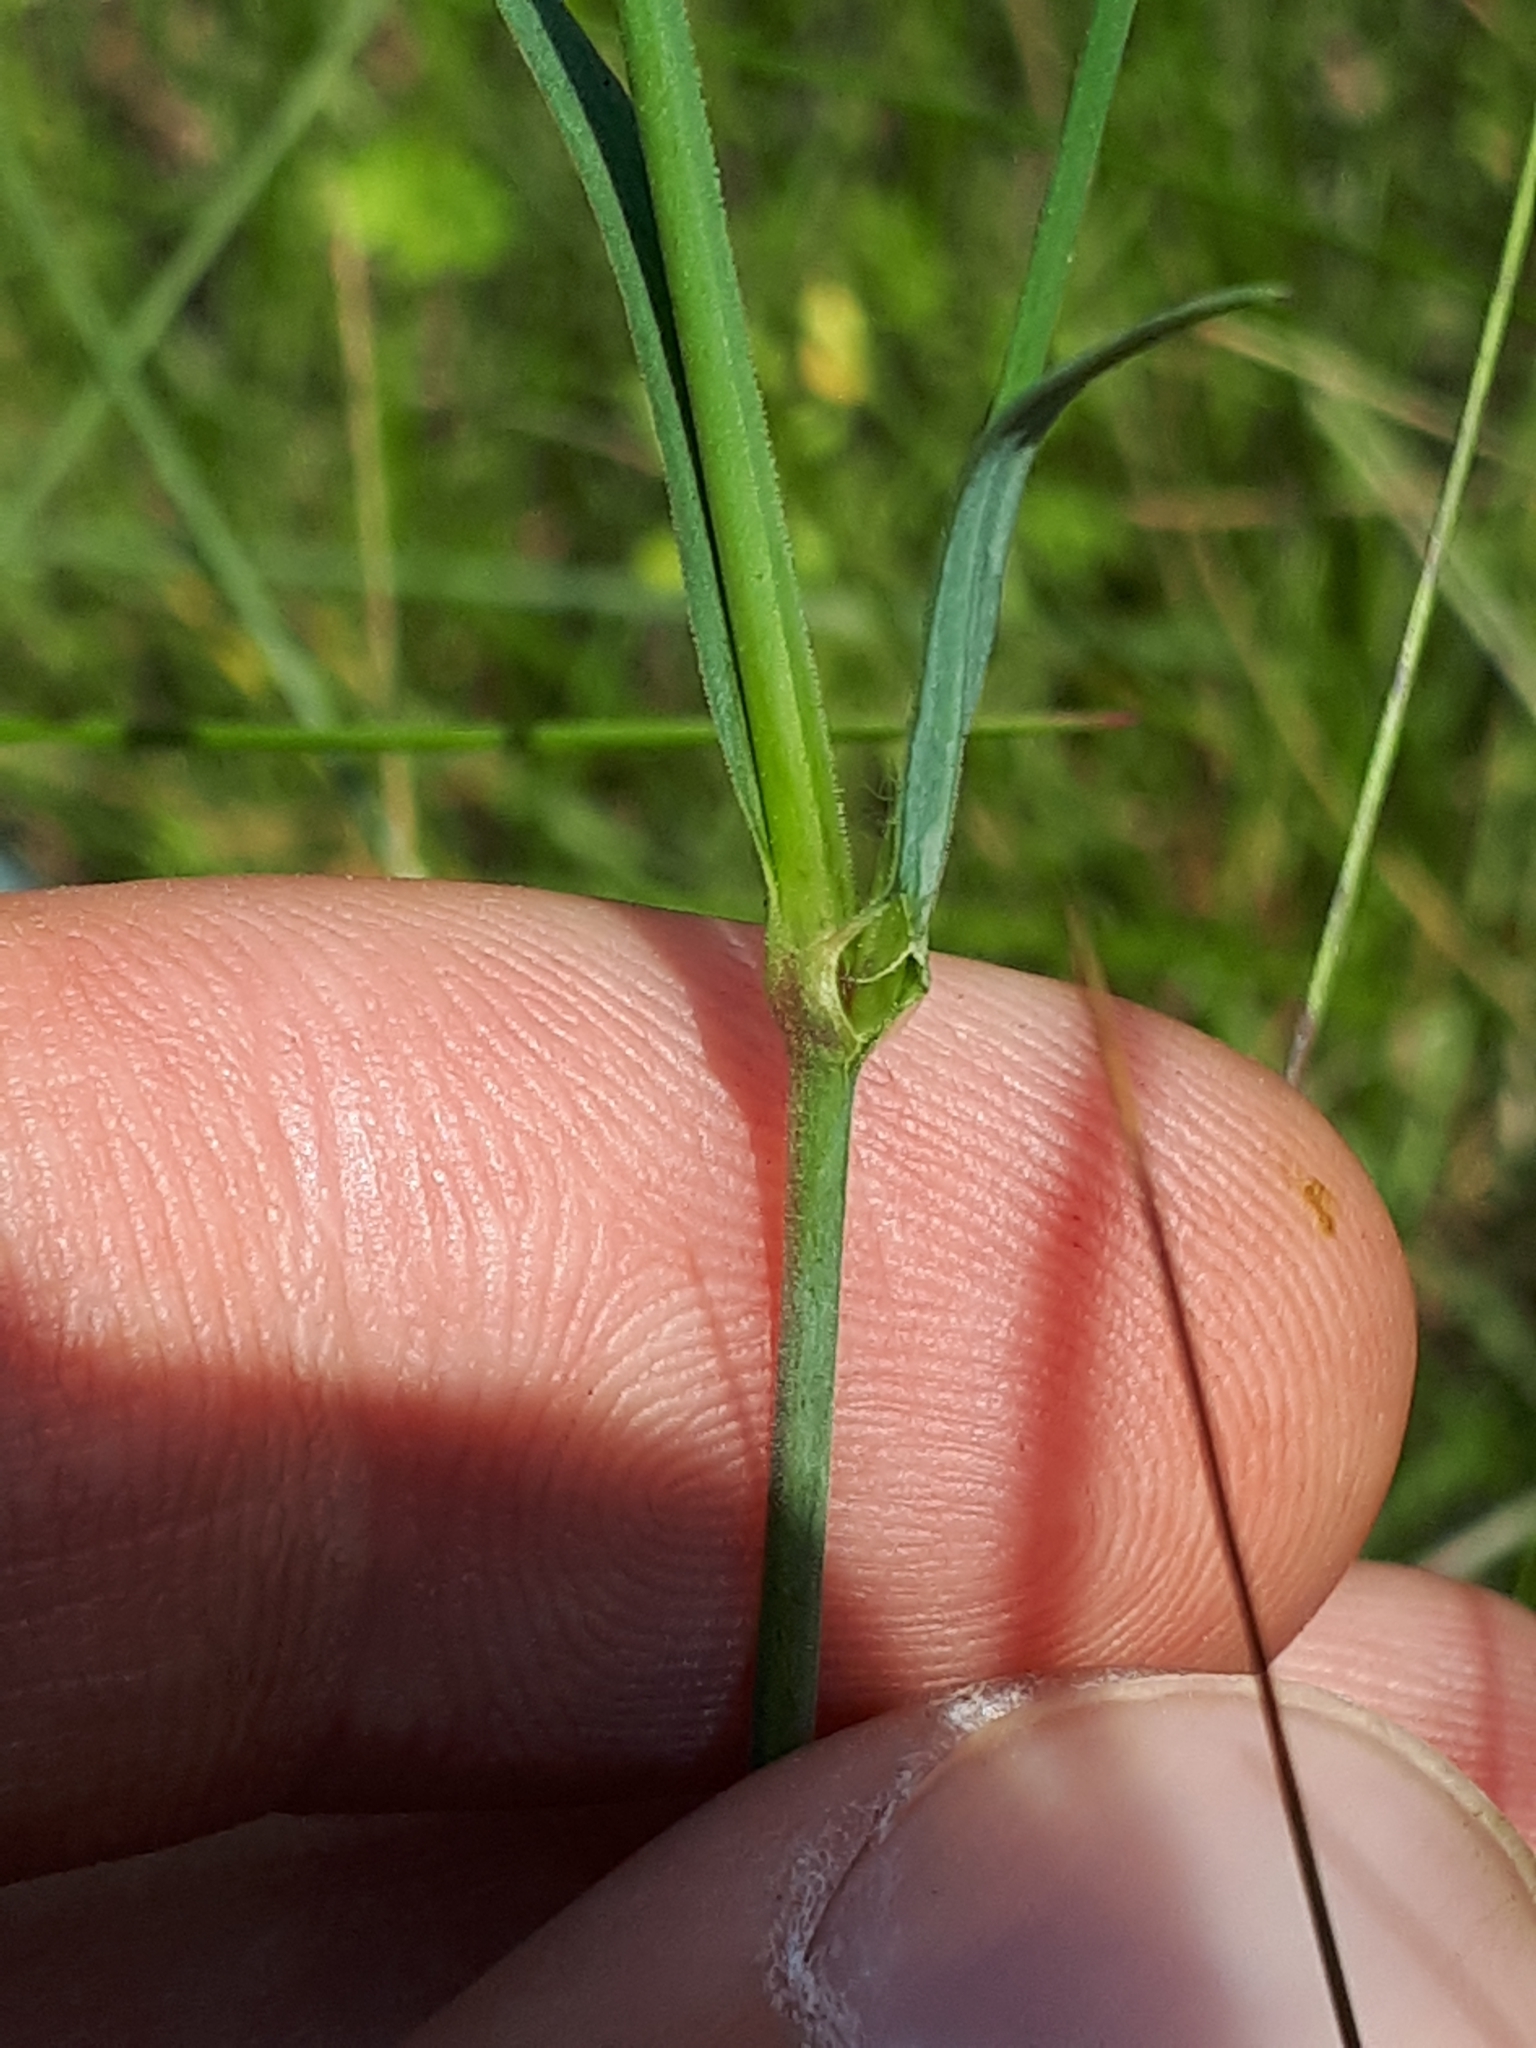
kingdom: Plantae
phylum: Tracheophyta
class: Magnoliopsida
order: Caryophyllales
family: Caryophyllaceae
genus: Dianthus
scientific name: Dianthus deltoides
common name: Maiden pink
